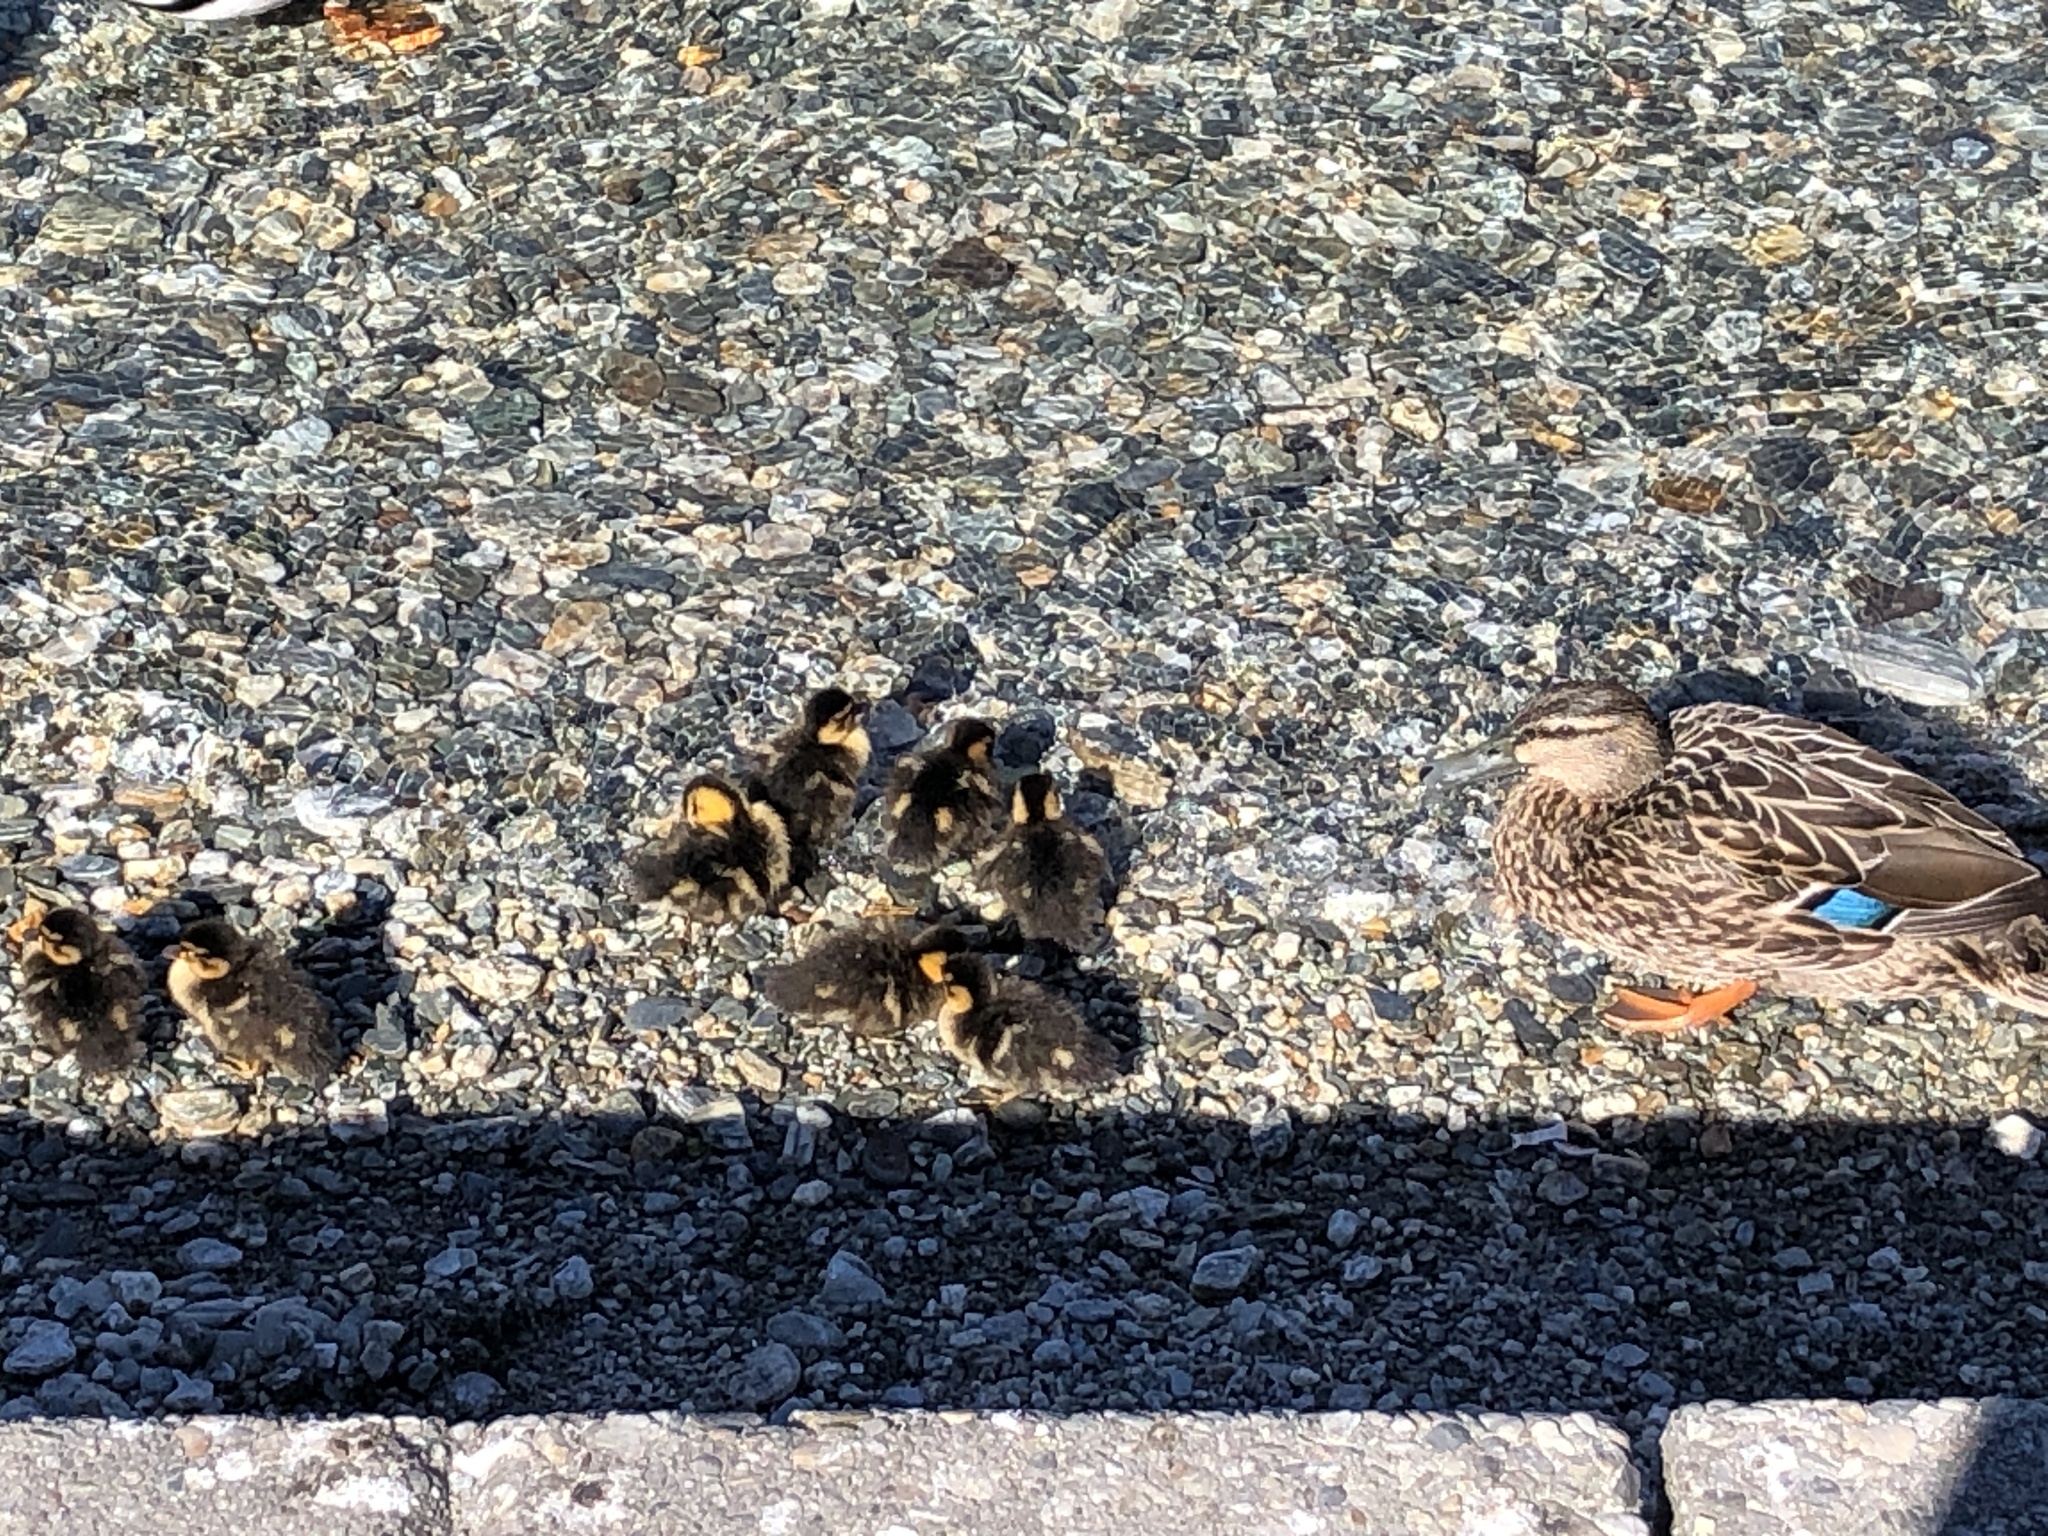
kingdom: Animalia
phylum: Chordata
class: Aves
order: Anseriformes
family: Anatidae
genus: Anas
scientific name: Anas
